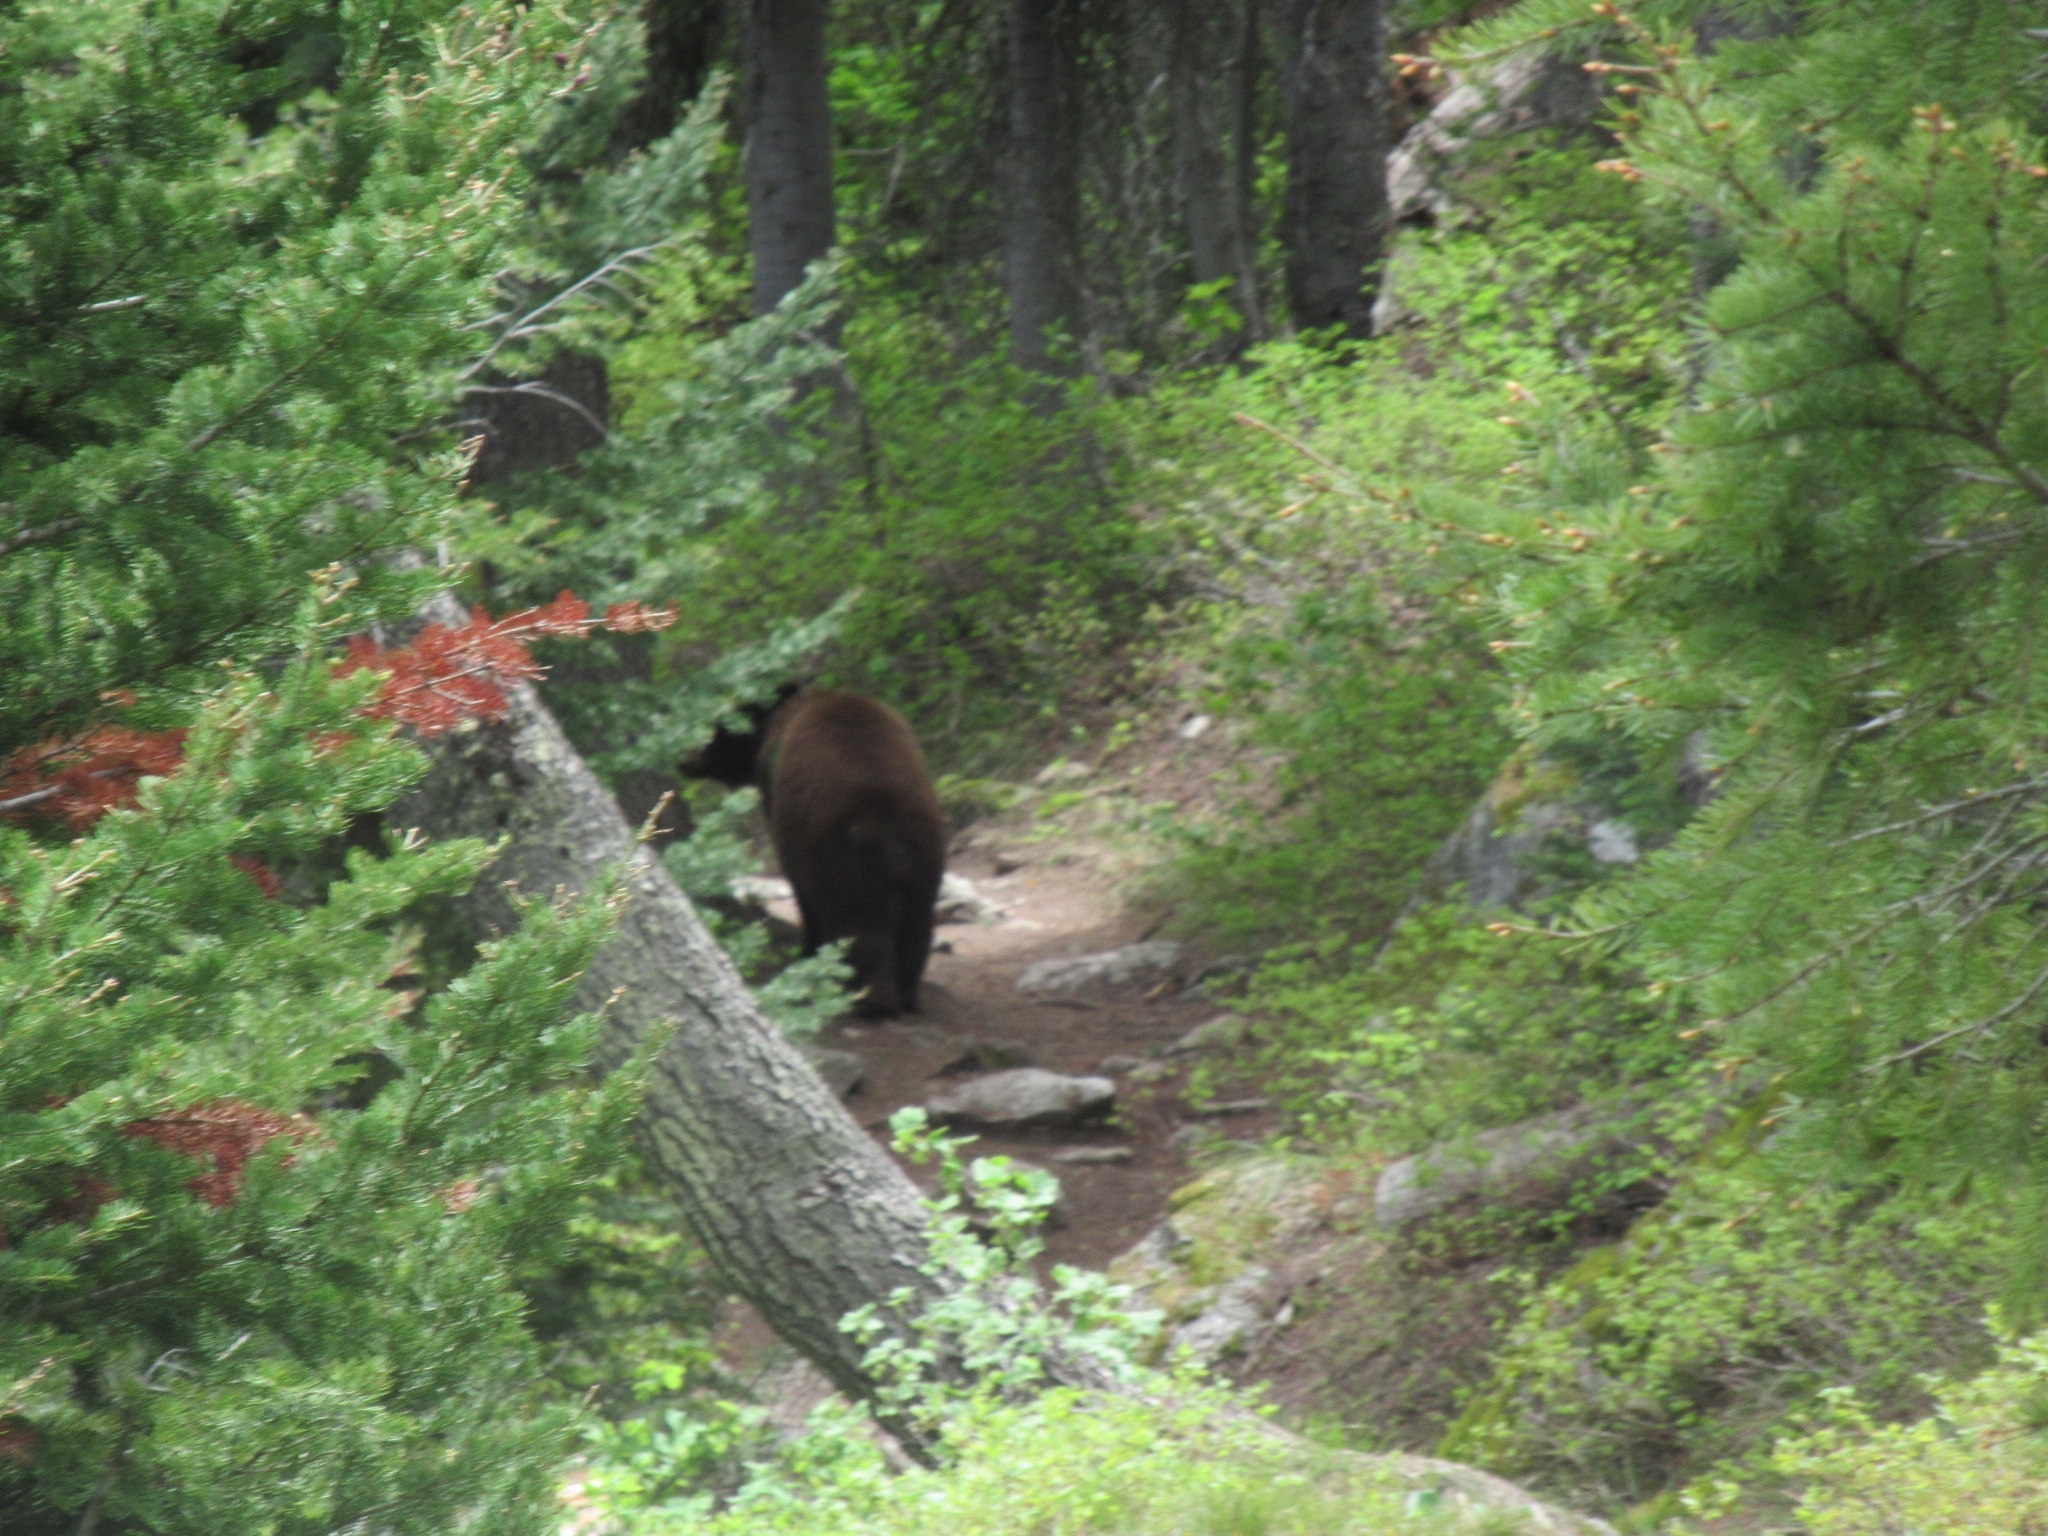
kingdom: Animalia
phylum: Chordata
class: Mammalia
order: Carnivora
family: Ursidae
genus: Ursus
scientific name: Ursus americanus
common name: American black bear
